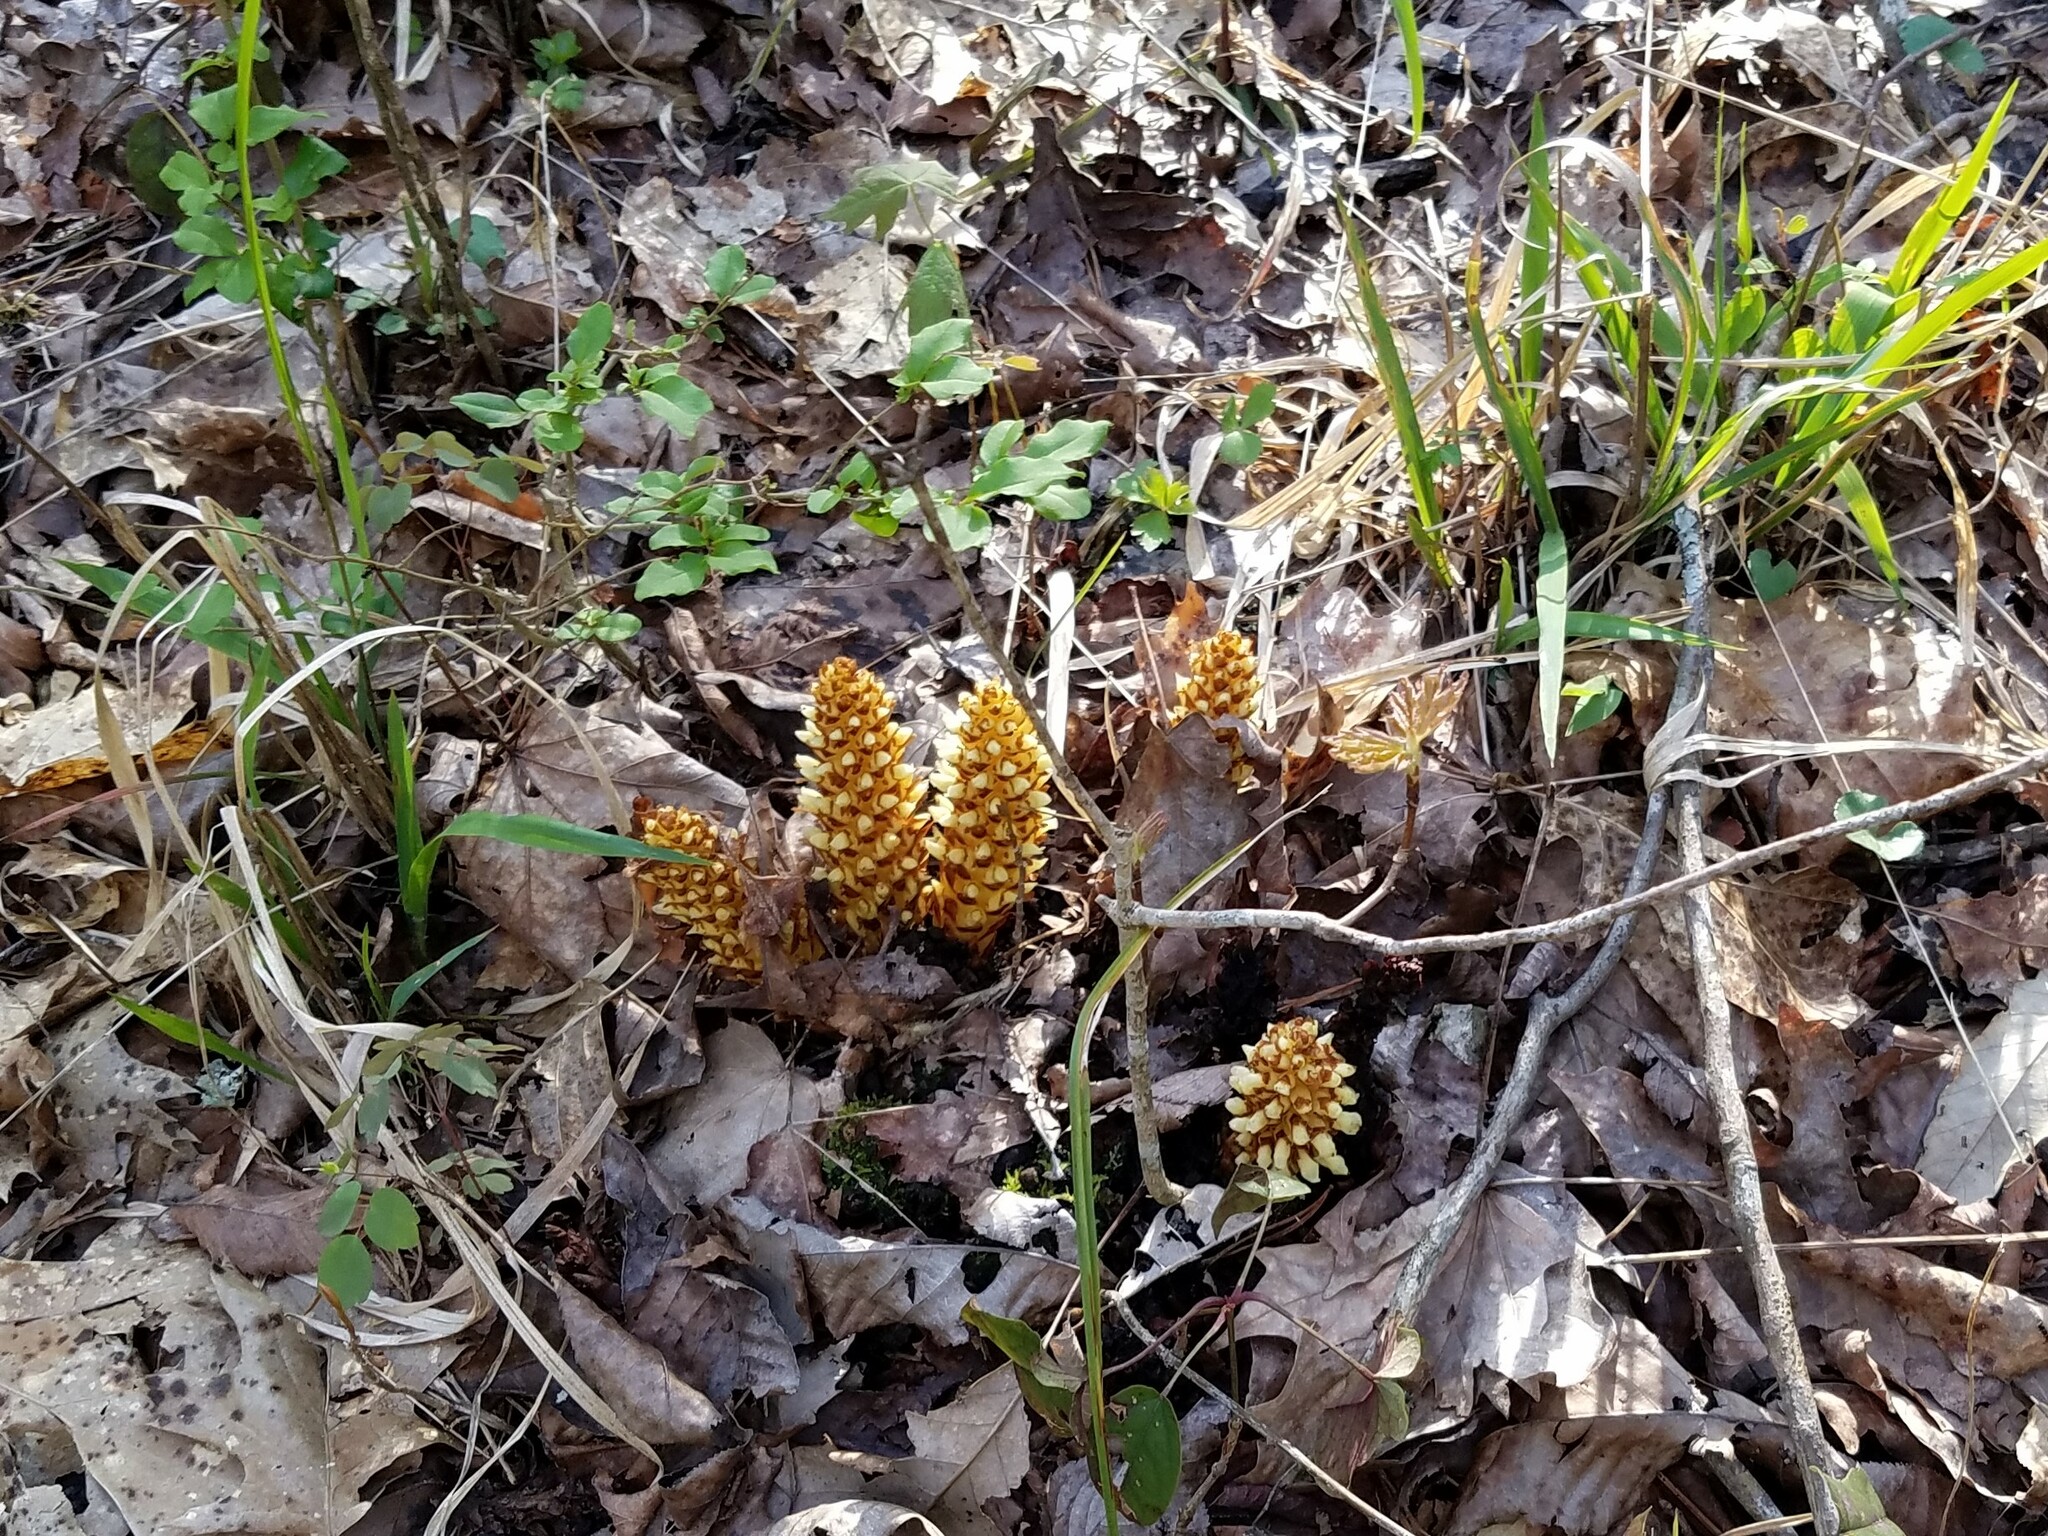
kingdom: Plantae
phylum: Tracheophyta
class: Magnoliopsida
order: Lamiales
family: Orobanchaceae
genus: Conopholis
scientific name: Conopholis americana
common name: American cancer-root
